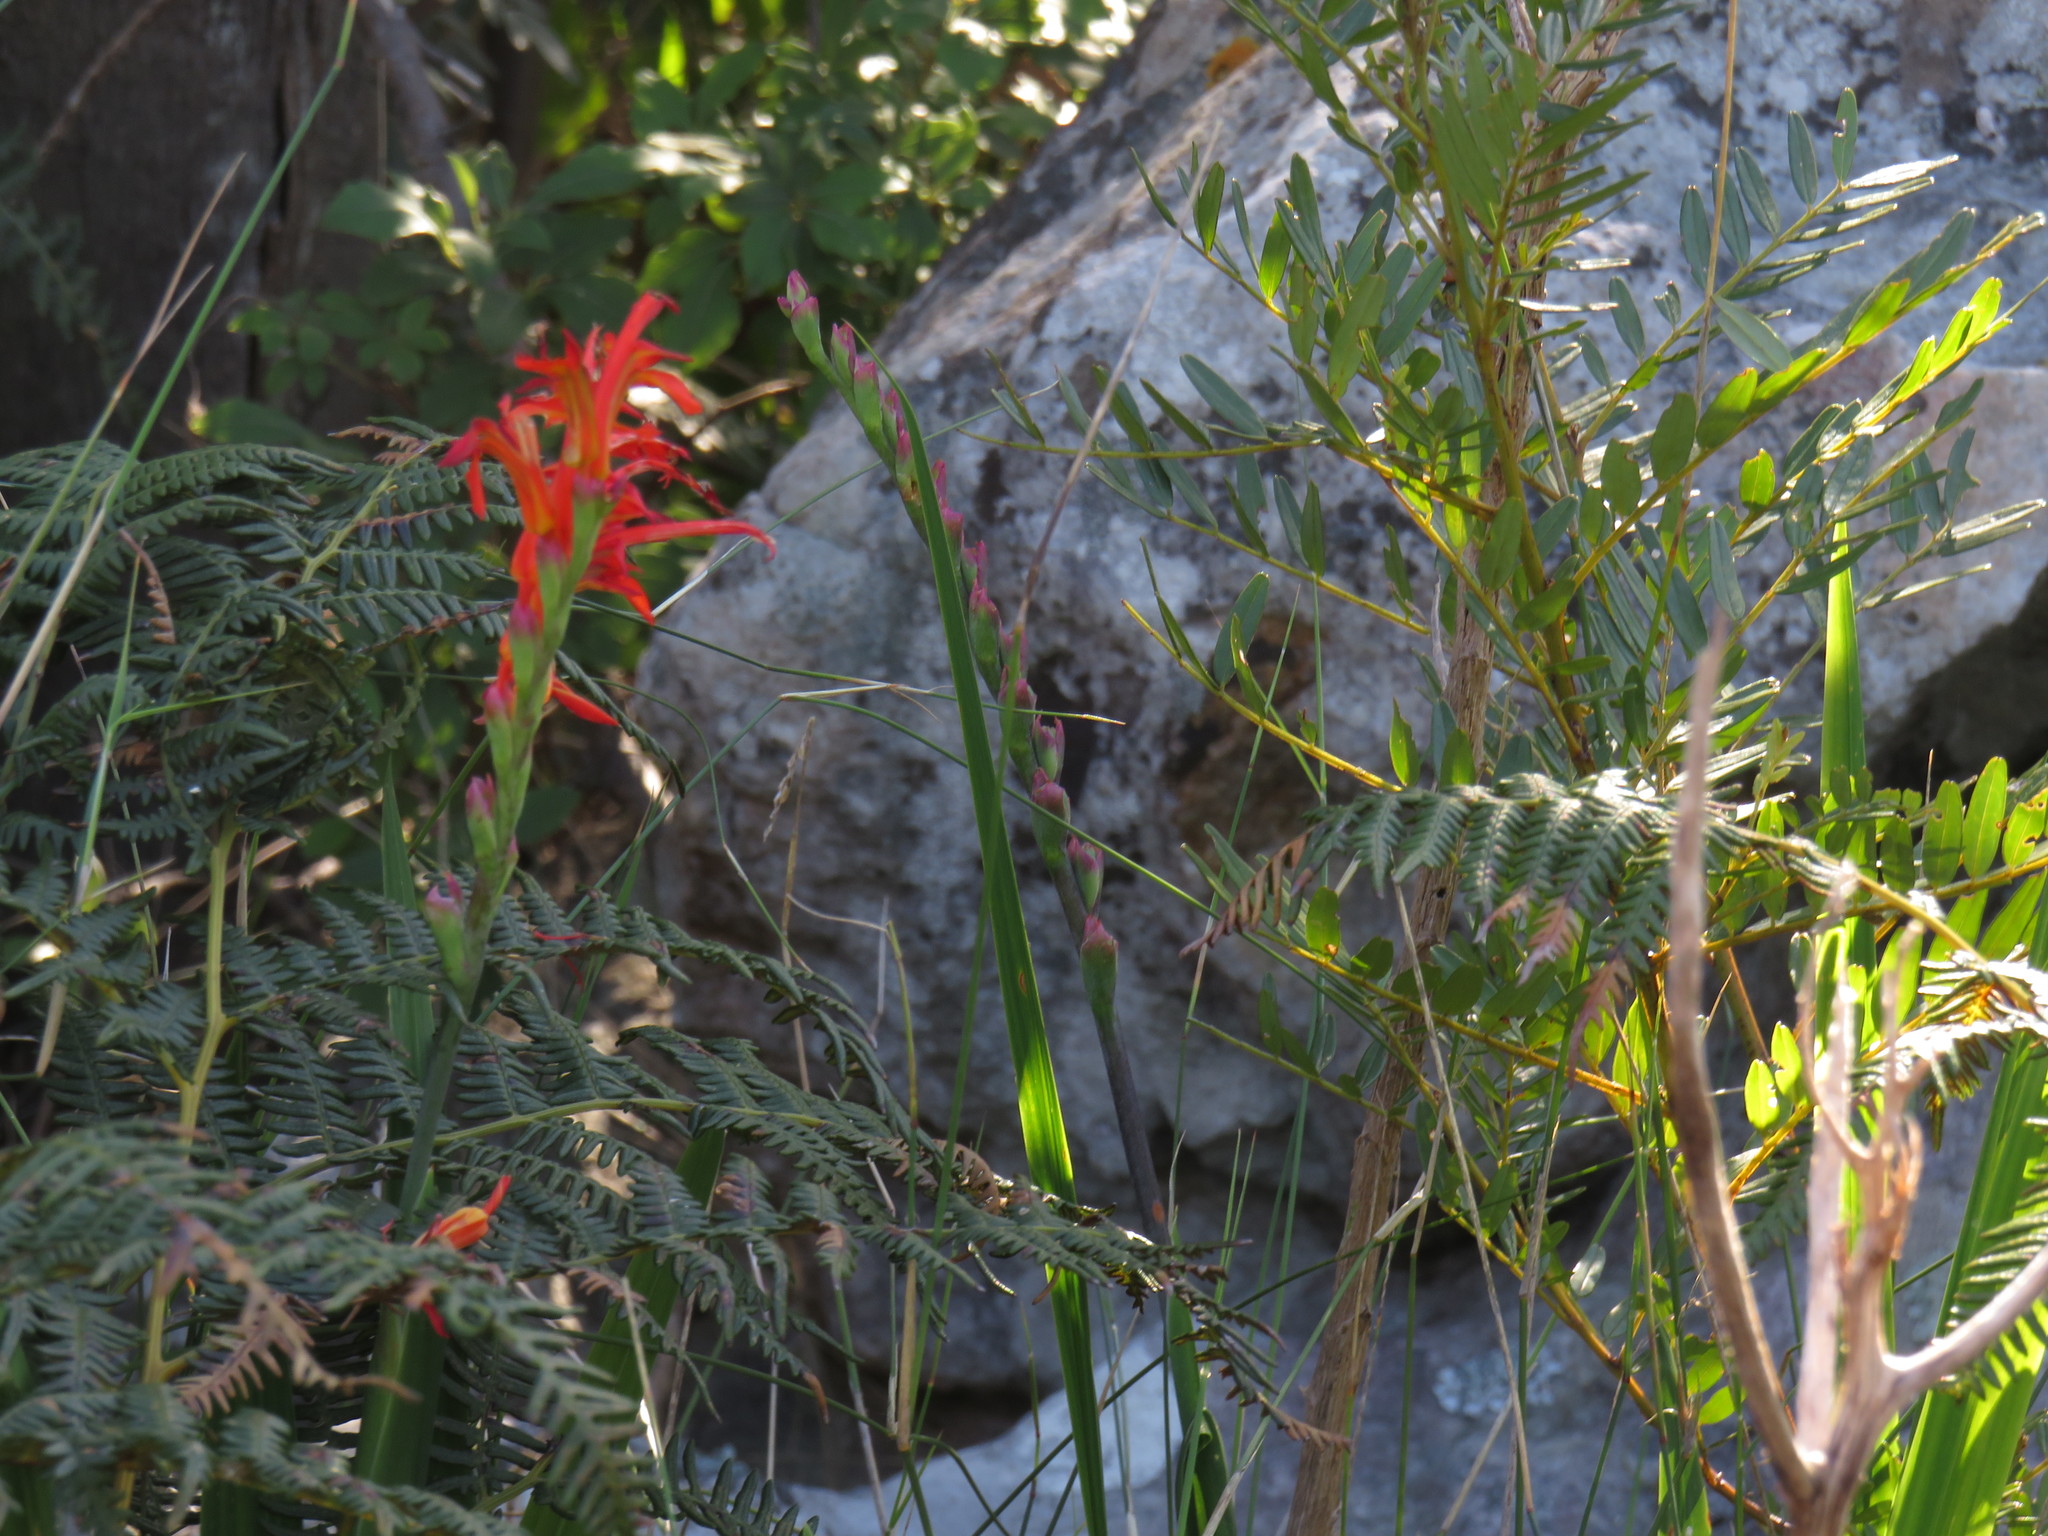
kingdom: Plantae
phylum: Tracheophyta
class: Liliopsida
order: Asparagales
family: Iridaceae
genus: Chasmanthe
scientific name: Chasmanthe aethiopica
